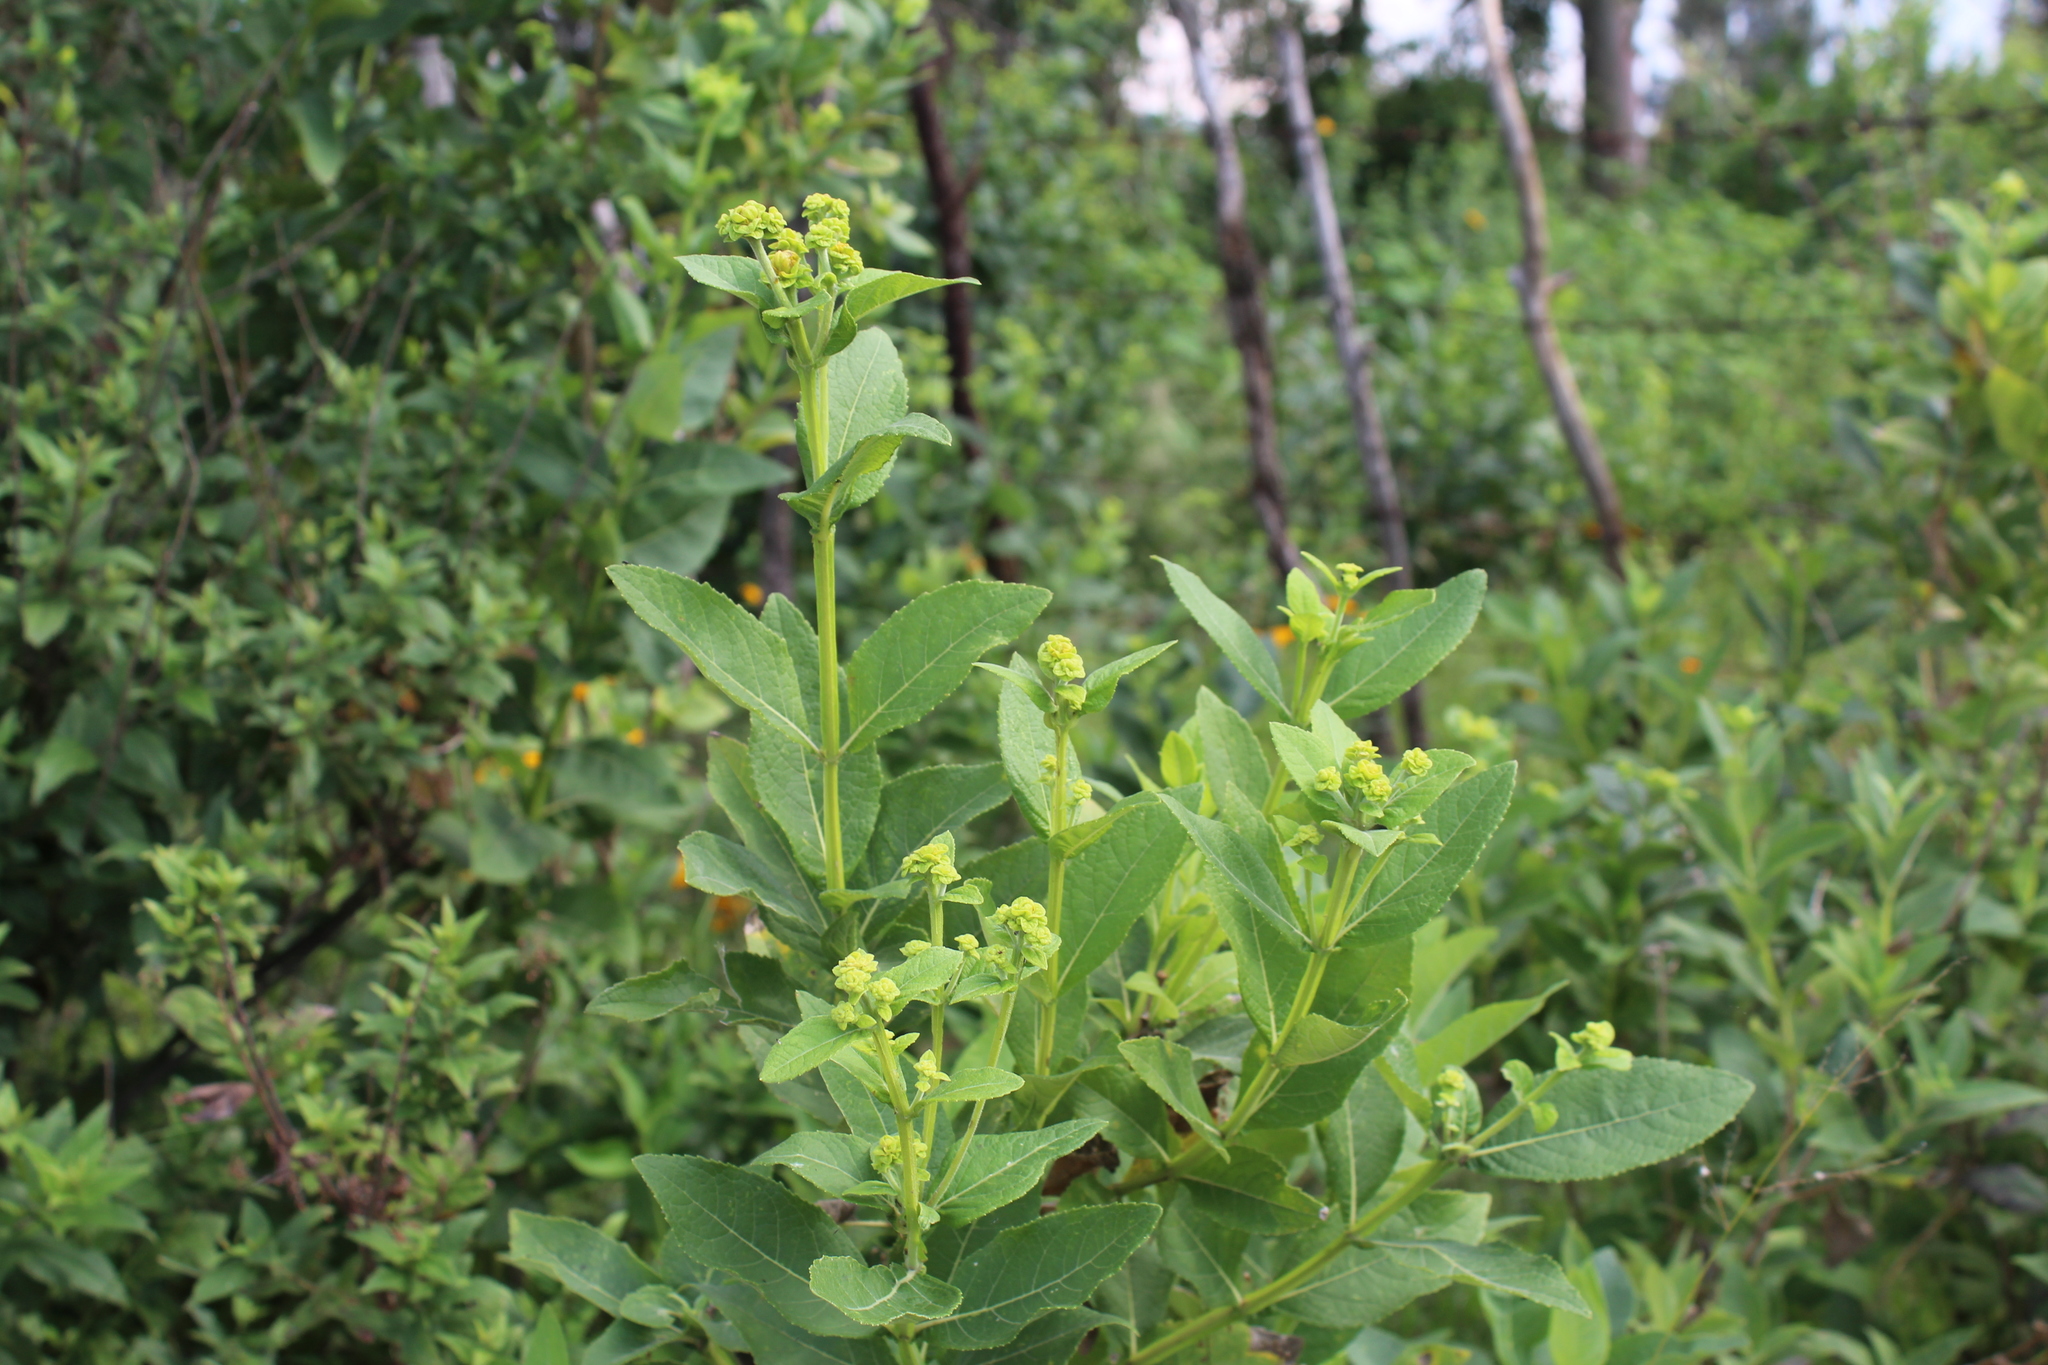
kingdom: Plantae
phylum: Tracheophyta
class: Magnoliopsida
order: Asterales
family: Asteraceae
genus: Verbesina
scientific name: Verbesina sphaerocephala
